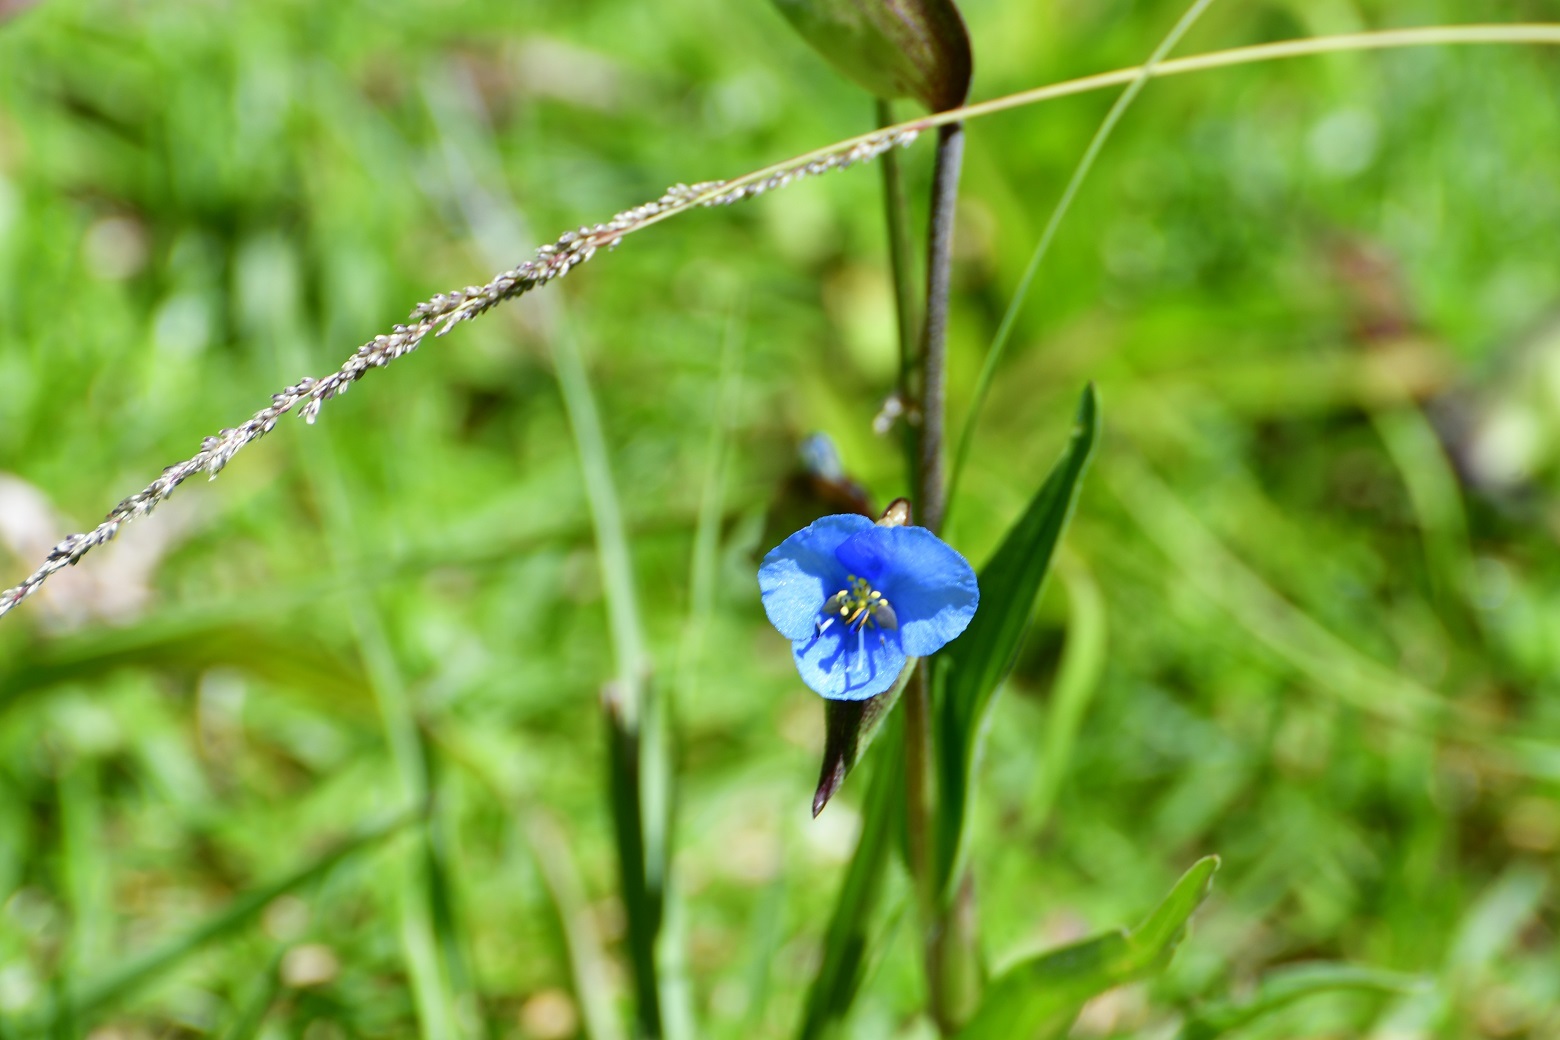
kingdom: Plantae
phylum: Tracheophyta
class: Liliopsida
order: Commelinales
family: Commelinaceae
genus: Commelina
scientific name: Commelina tuberosa
